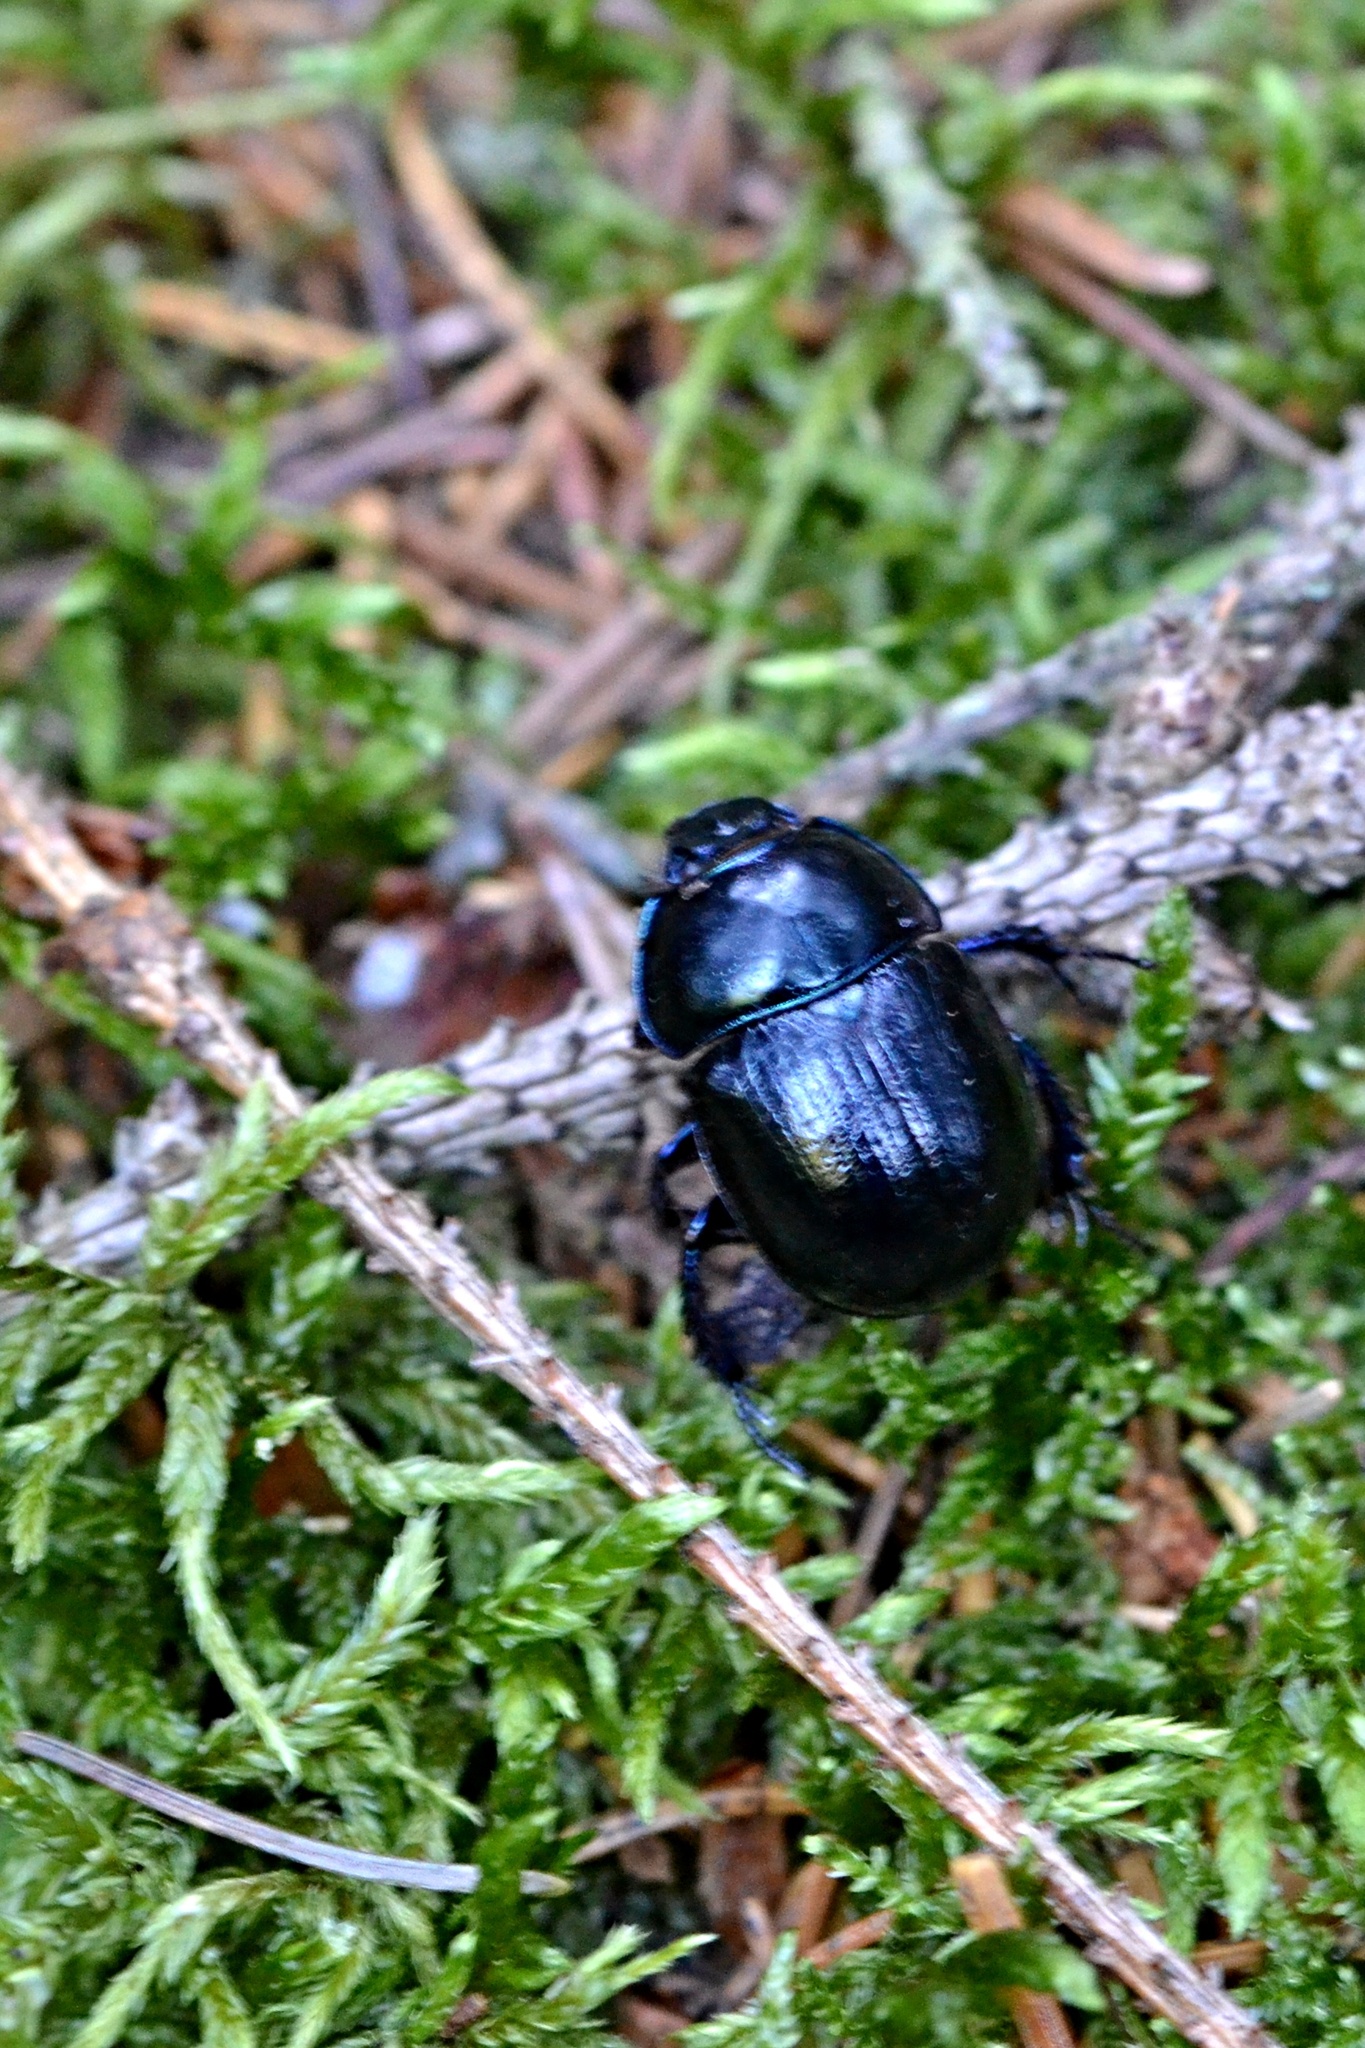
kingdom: Animalia
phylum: Arthropoda
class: Insecta
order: Coleoptera
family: Geotrupidae
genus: Anoplotrupes
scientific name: Anoplotrupes stercorosus
